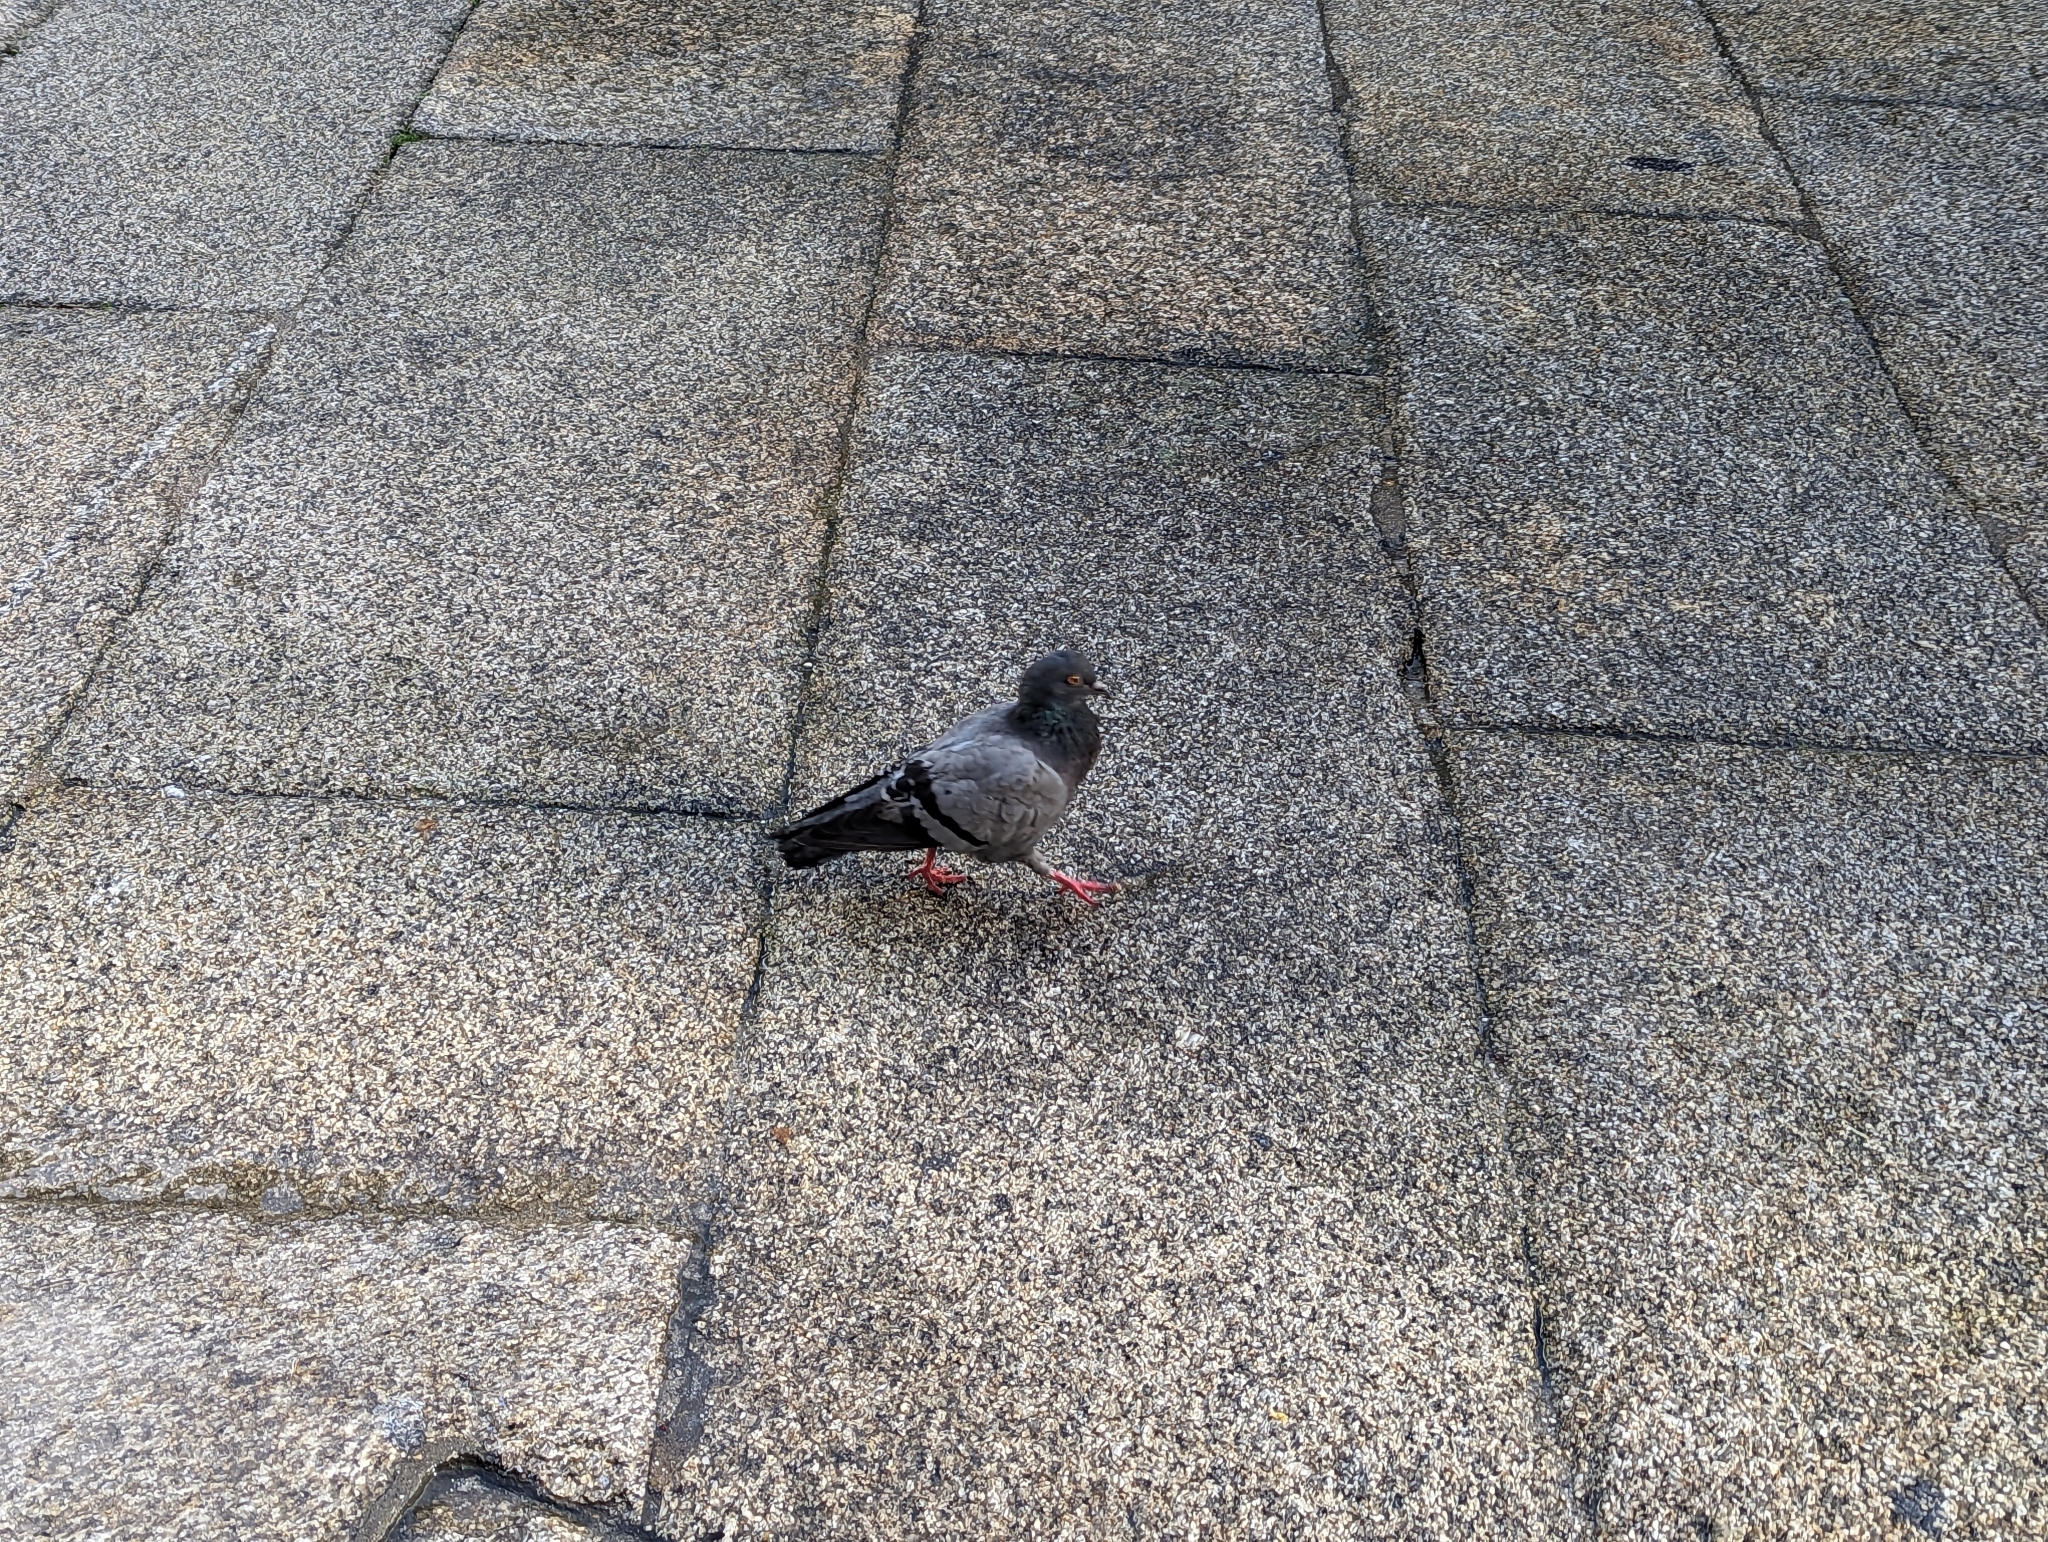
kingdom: Animalia
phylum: Chordata
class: Aves
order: Columbiformes
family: Columbidae
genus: Columba
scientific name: Columba livia
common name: Rock pigeon
